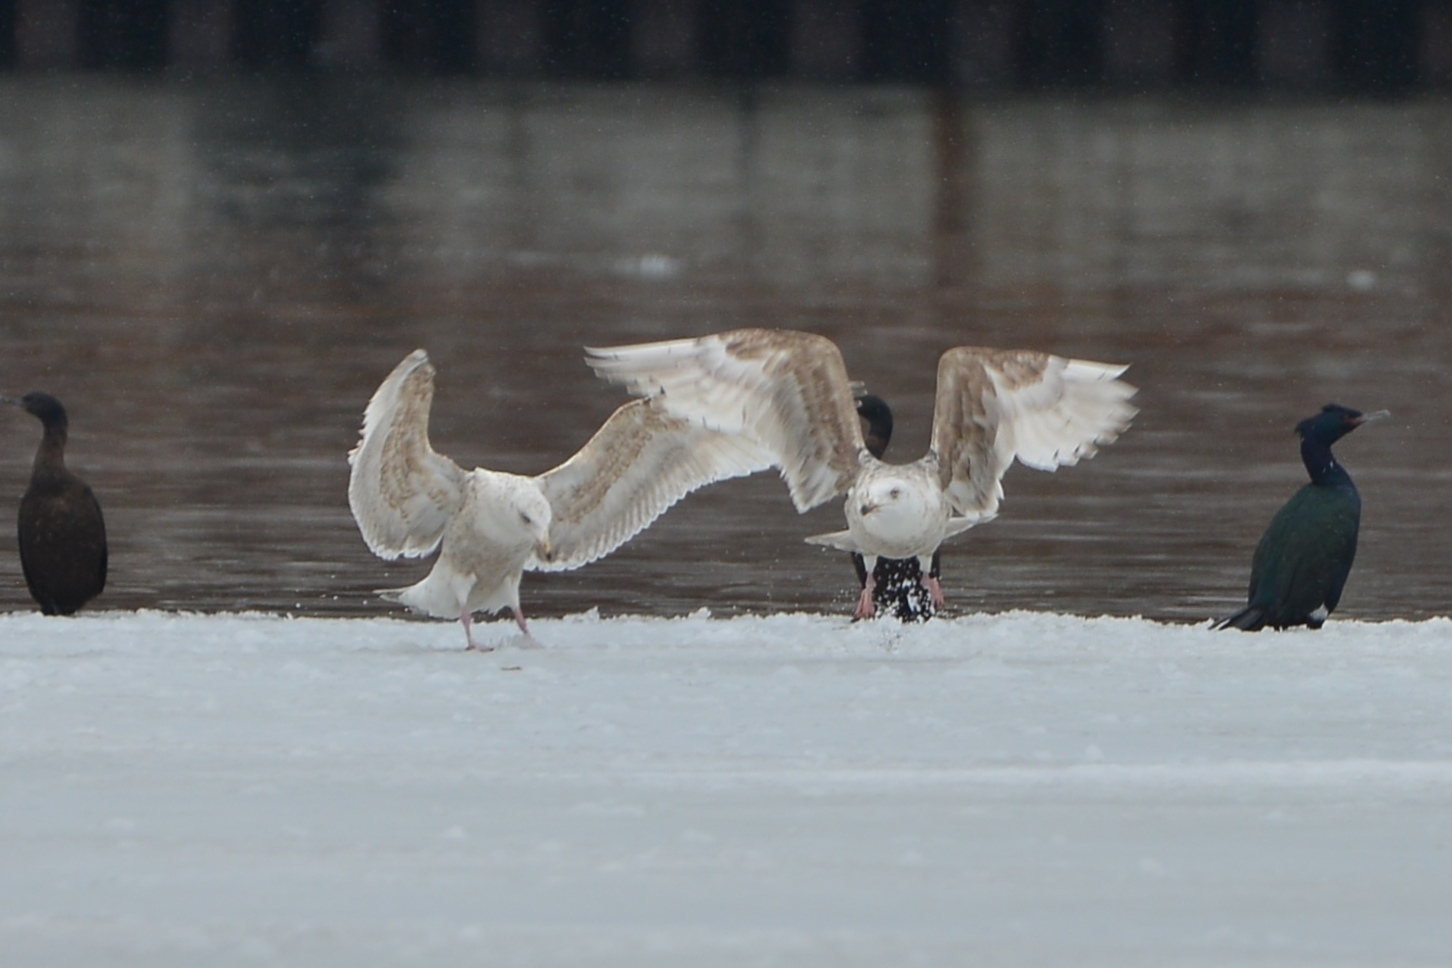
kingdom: Animalia
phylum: Chordata
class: Aves
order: Charadriiformes
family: Laridae
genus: Larus
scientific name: Larus hyperboreus
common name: Glaucous gull
